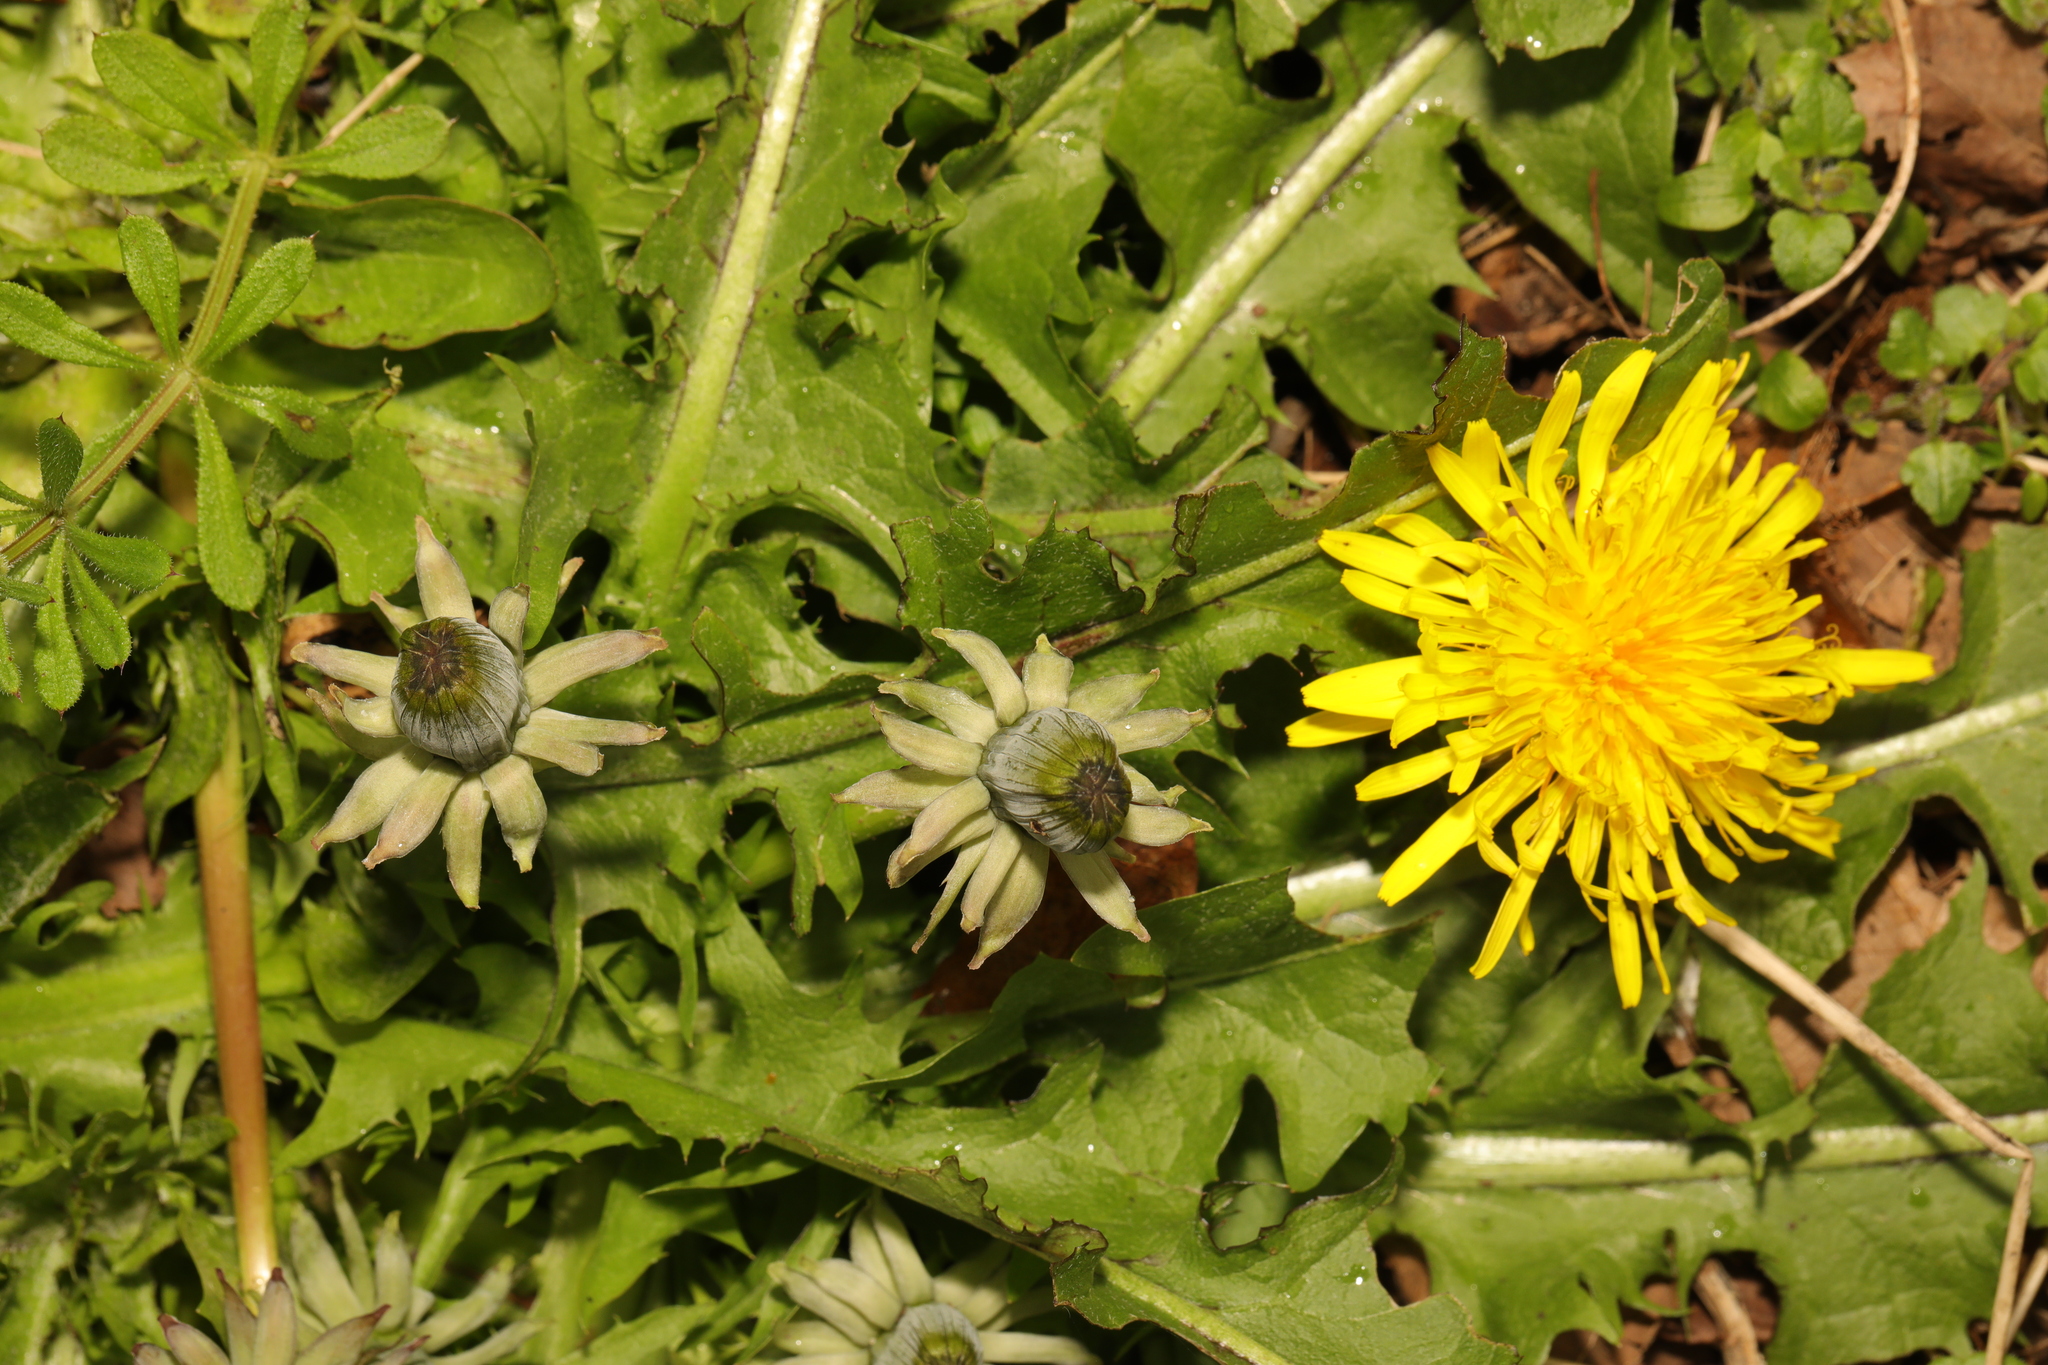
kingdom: Plantae
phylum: Tracheophyta
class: Magnoliopsida
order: Asterales
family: Asteraceae
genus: Taraxacum
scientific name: Taraxacum officinale
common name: Common dandelion
